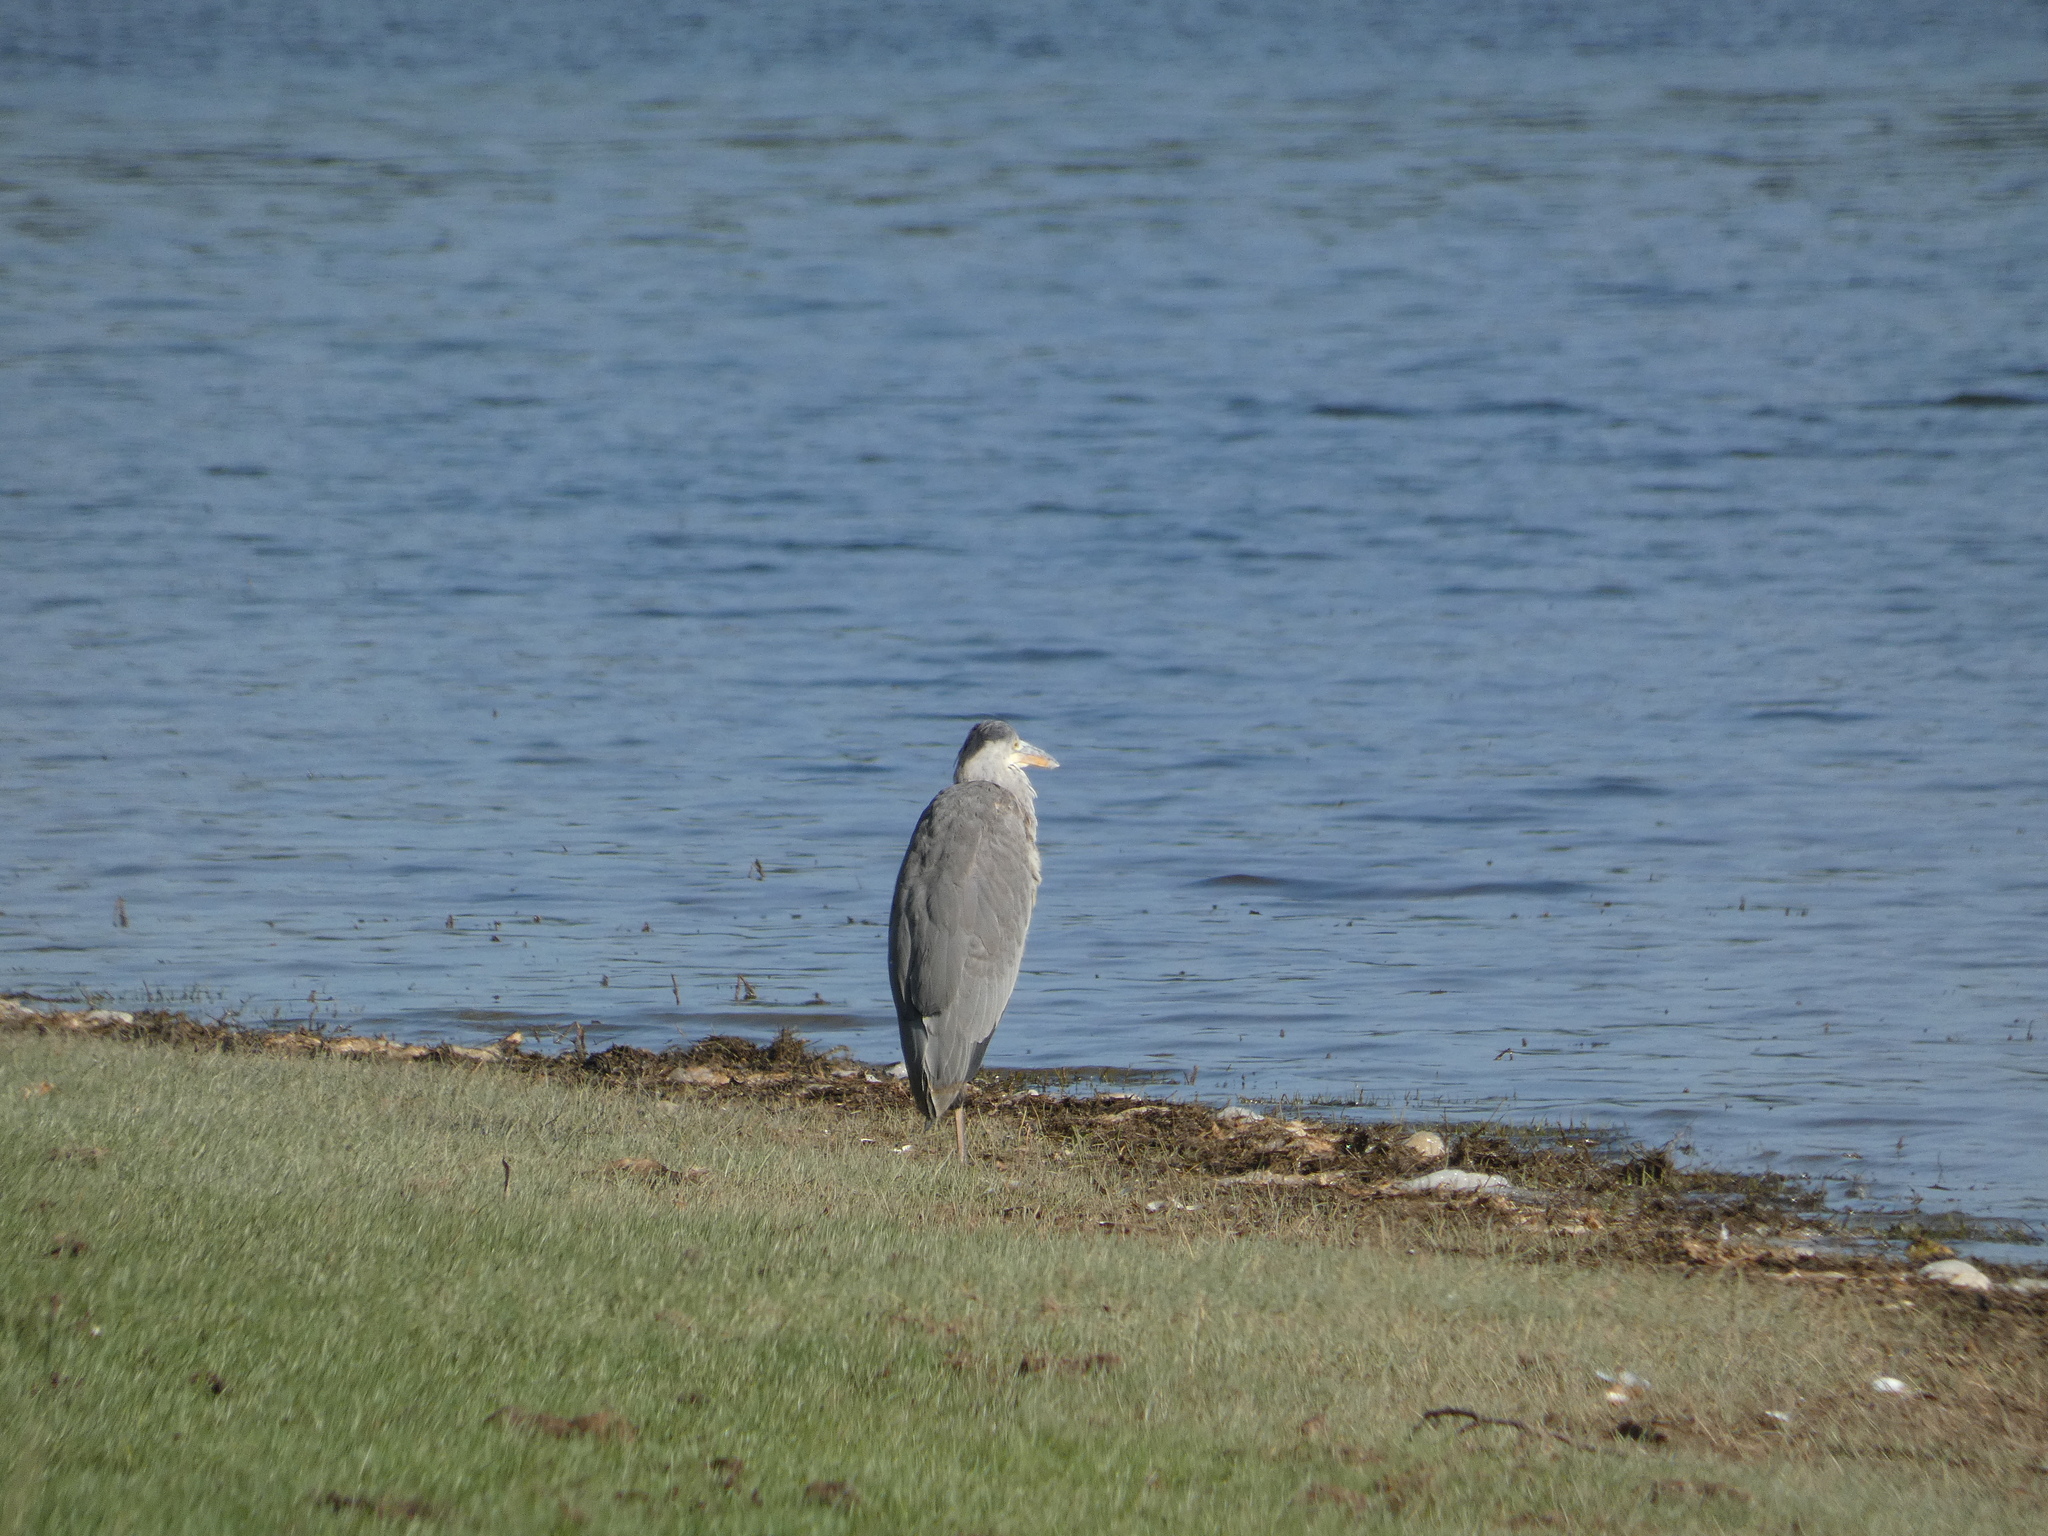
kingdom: Animalia
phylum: Chordata
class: Aves
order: Pelecaniformes
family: Ardeidae
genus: Ardea
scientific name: Ardea cinerea
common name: Grey heron
